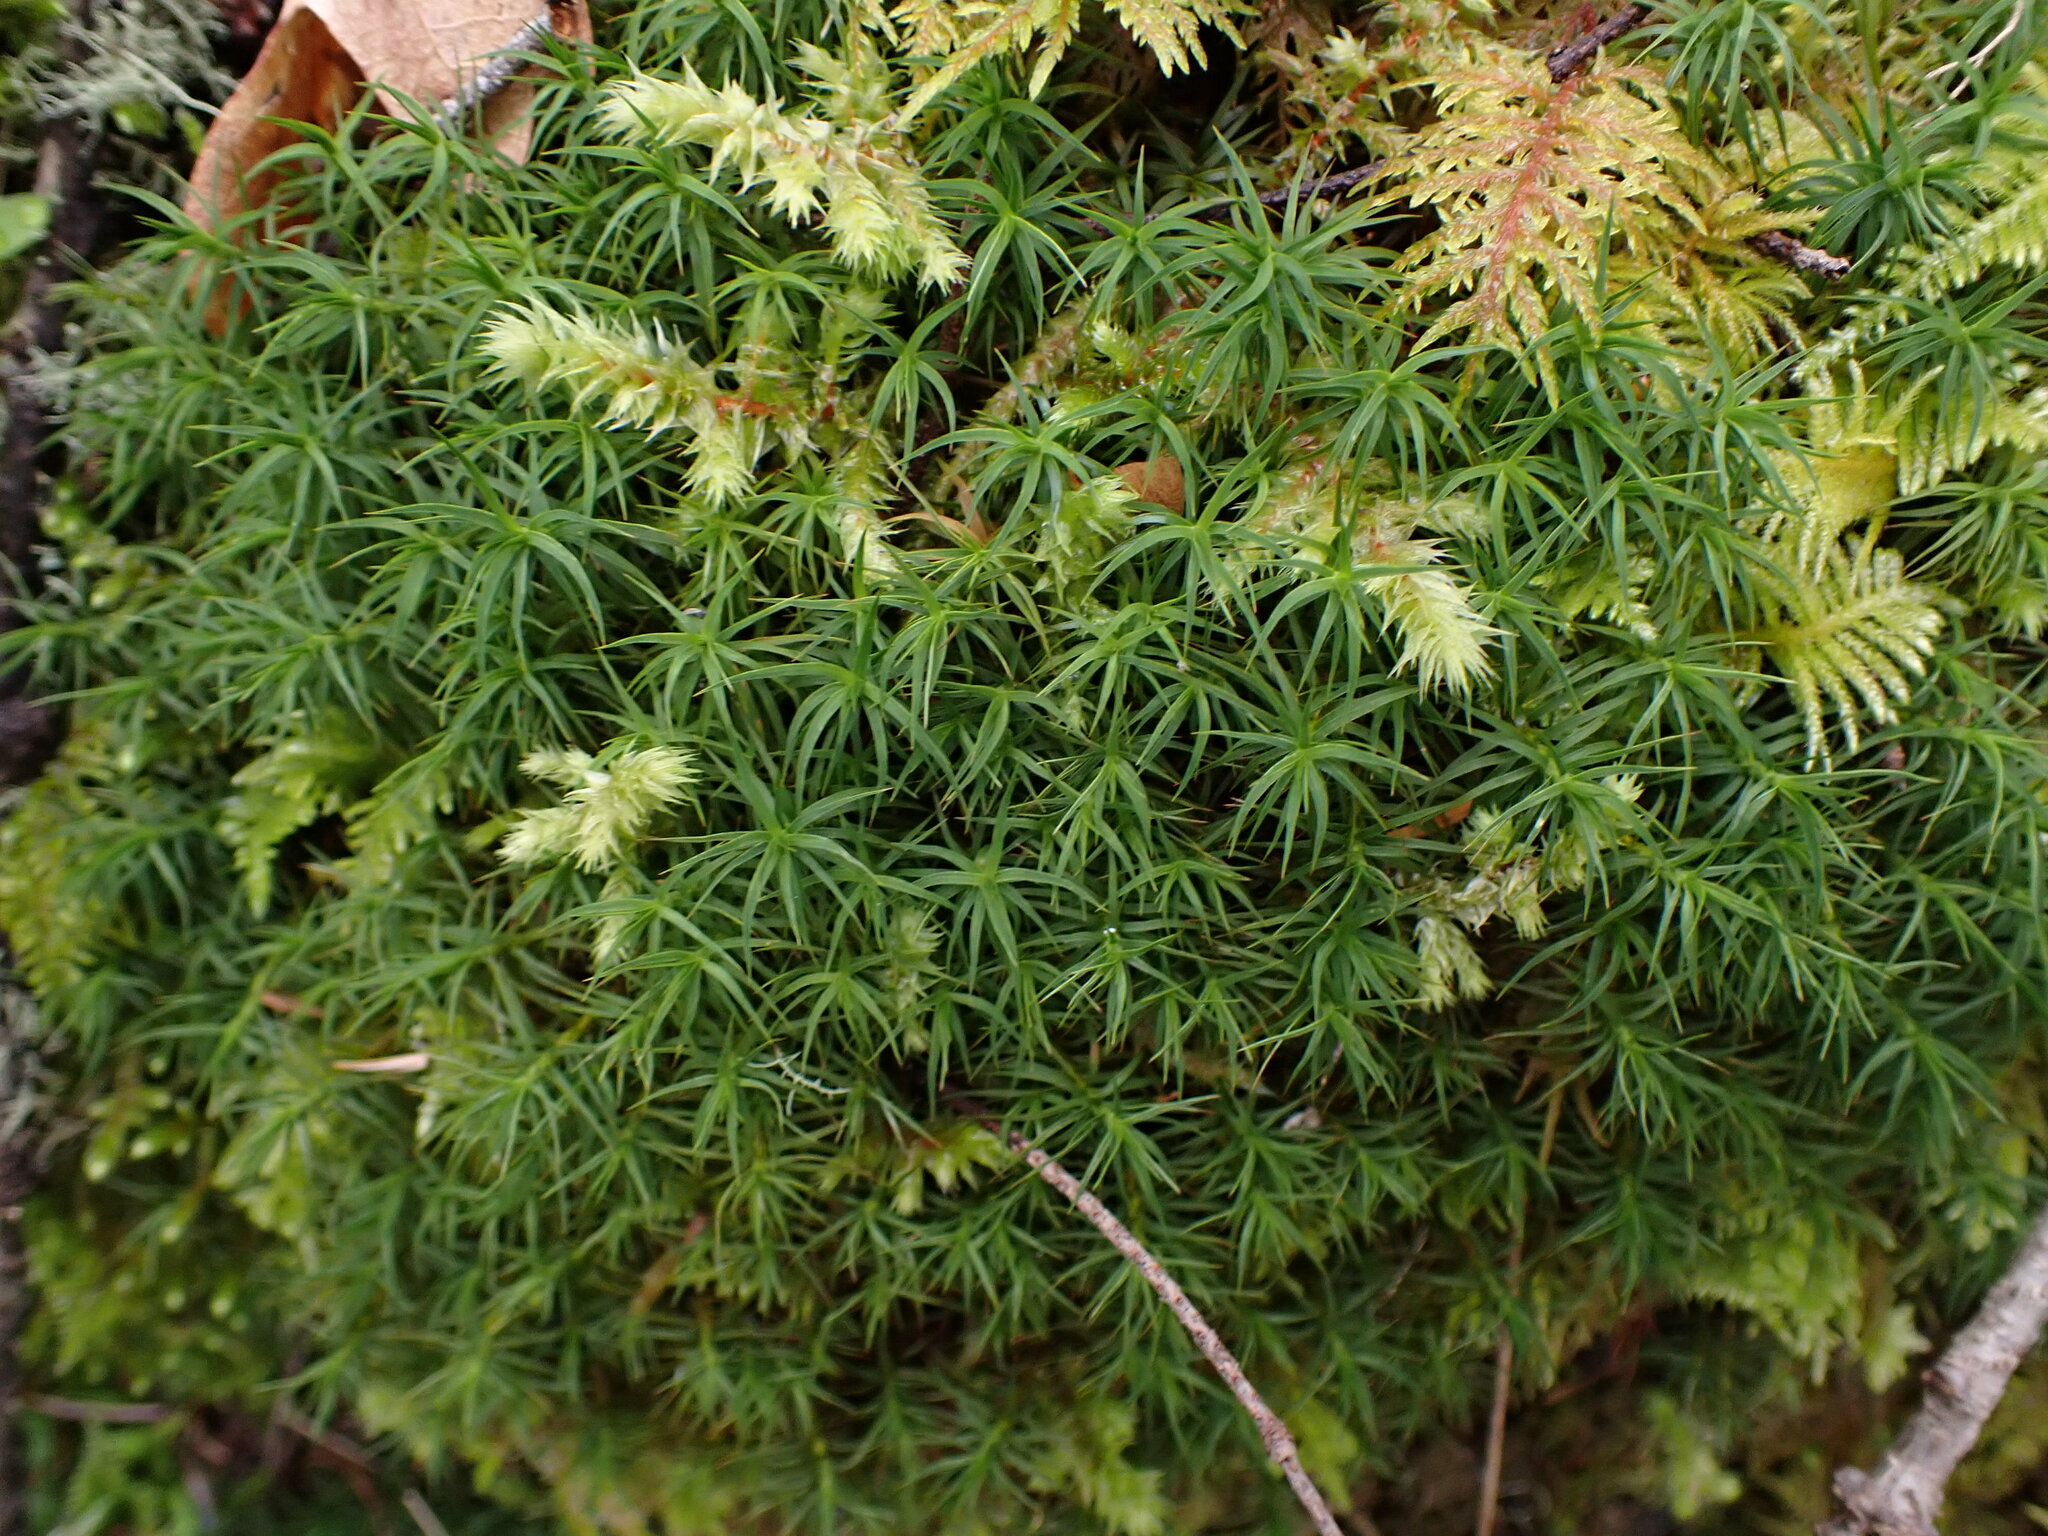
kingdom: Plantae
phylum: Bryophyta
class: Polytrichopsida
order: Polytrichales
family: Polytrichaceae
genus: Polytrichastrum
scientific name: Polytrichastrum alpinum
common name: Alpine haircap
